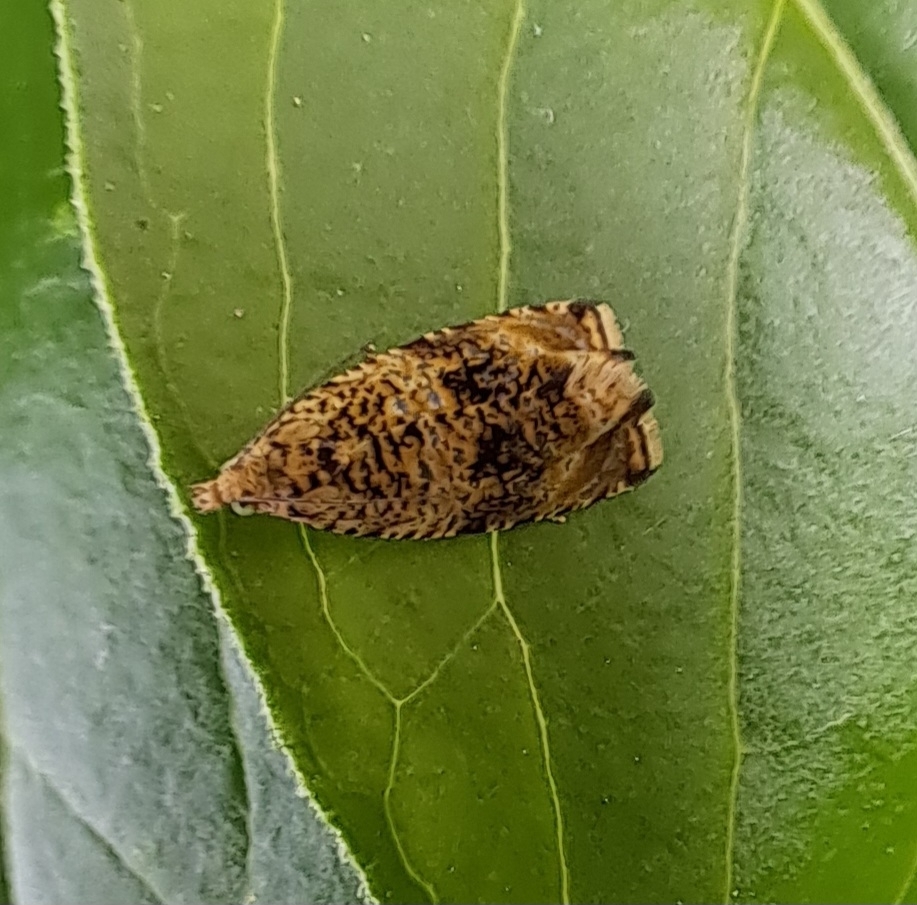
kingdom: Animalia
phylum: Arthropoda
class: Insecta
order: Lepidoptera
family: Tortricidae
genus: Syricoris
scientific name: Syricoris lacunana
